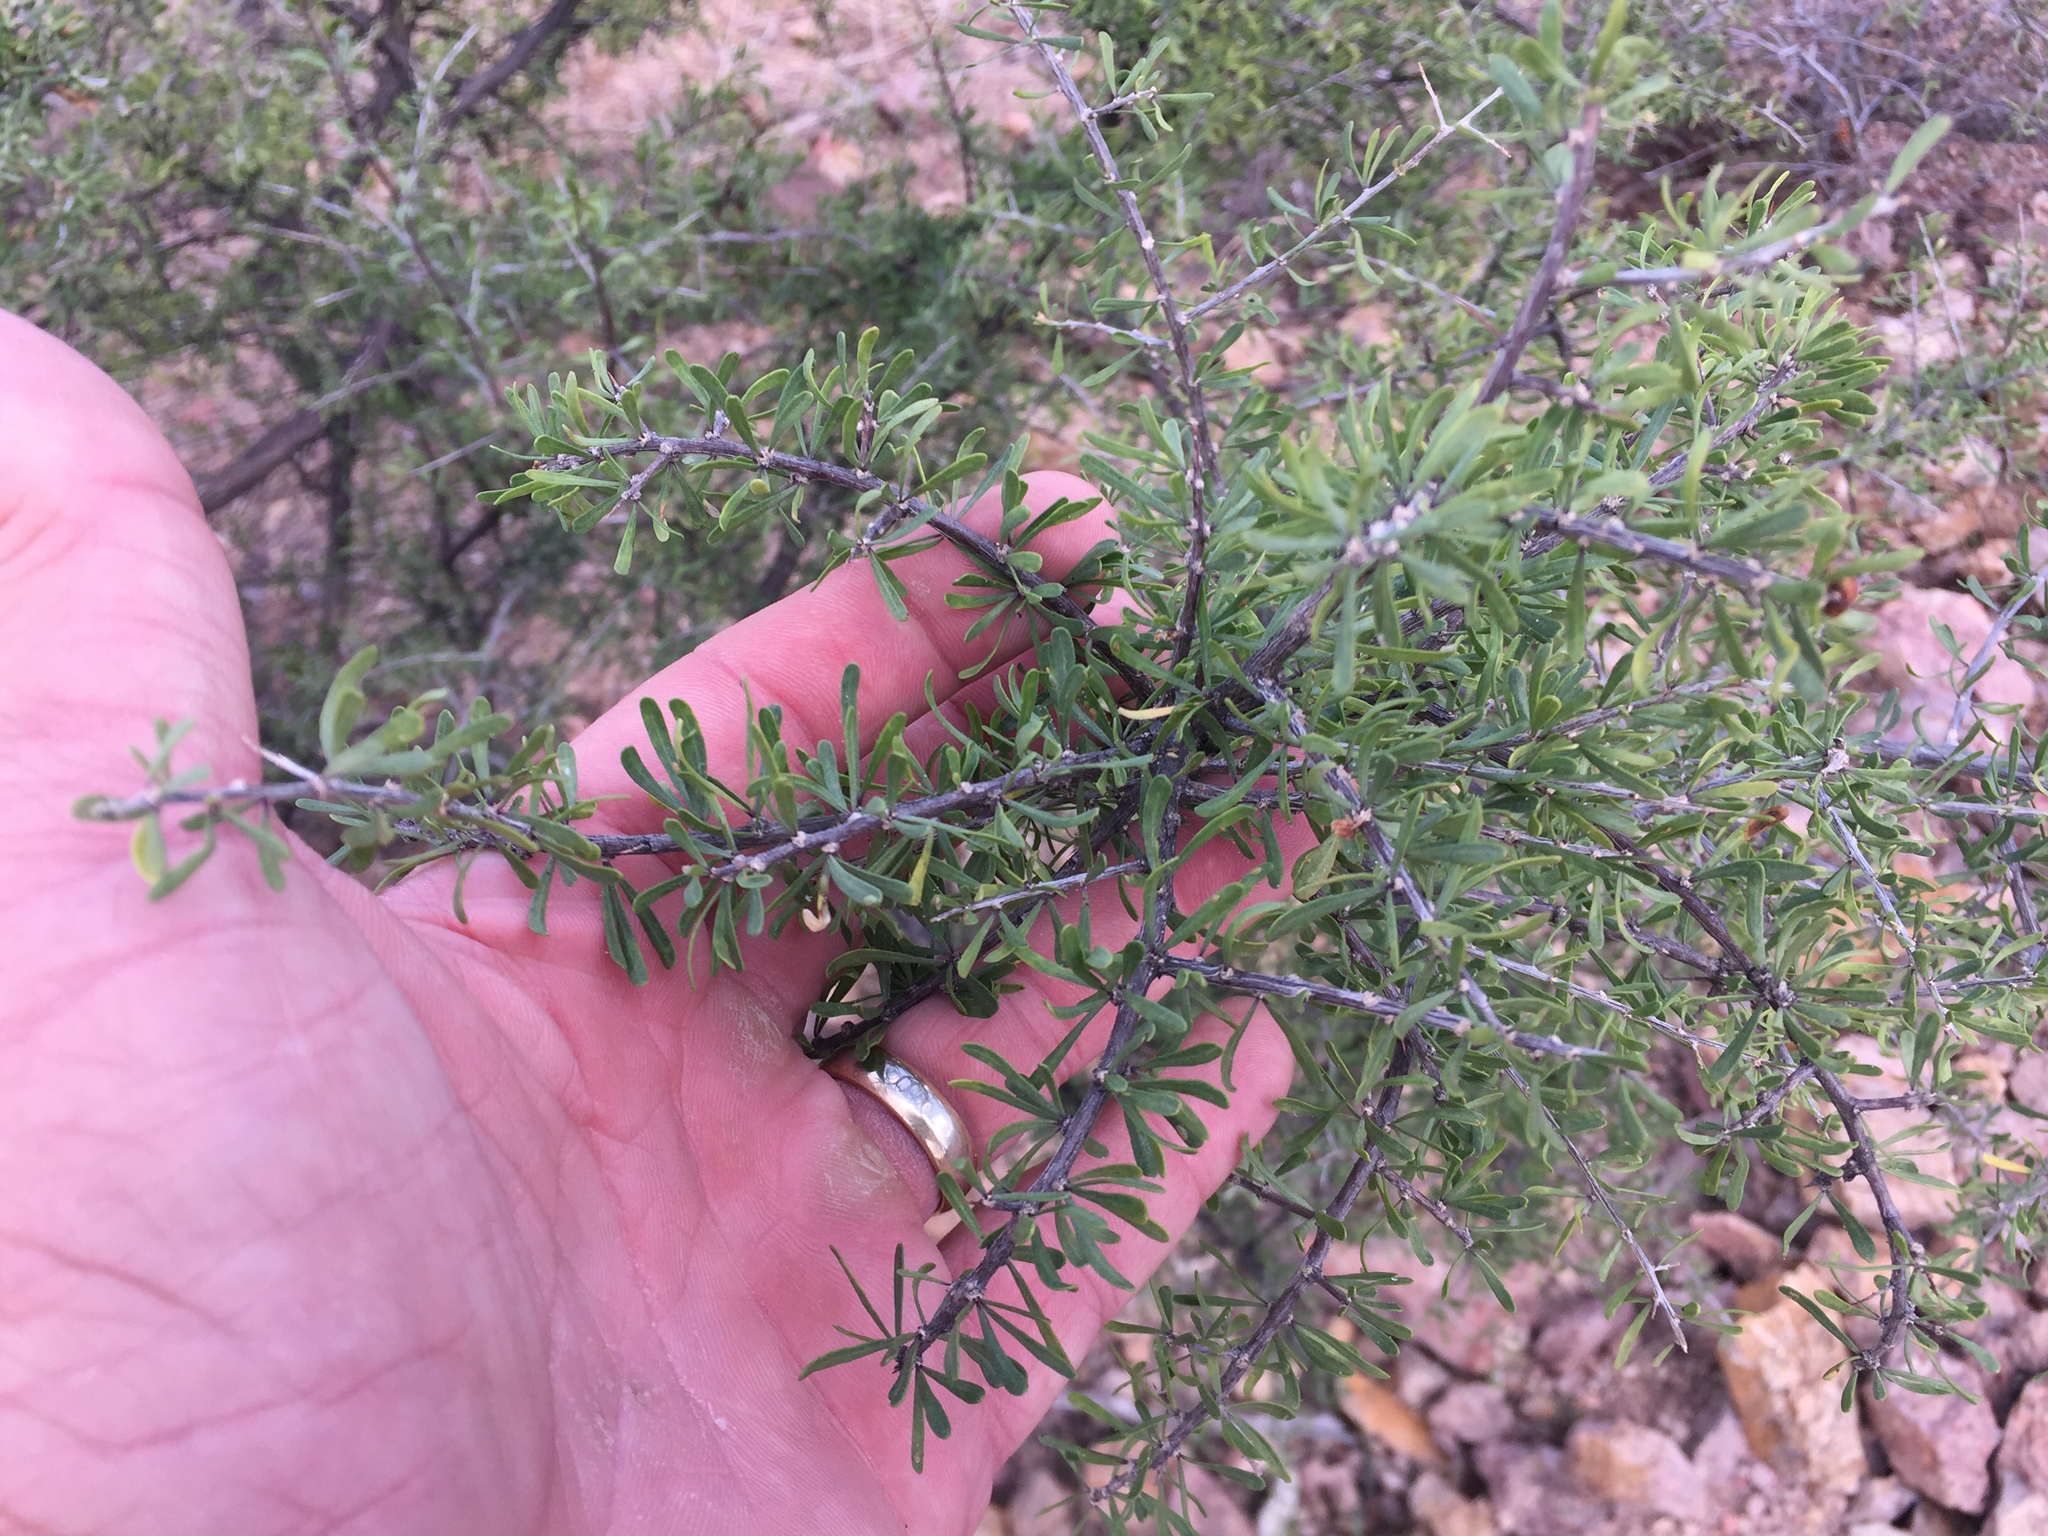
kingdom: Plantae
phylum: Tracheophyta
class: Magnoliopsida
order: Solanales
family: Solanaceae
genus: Lycium
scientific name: Lycium berlandieri
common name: Berlandier wolfberry
